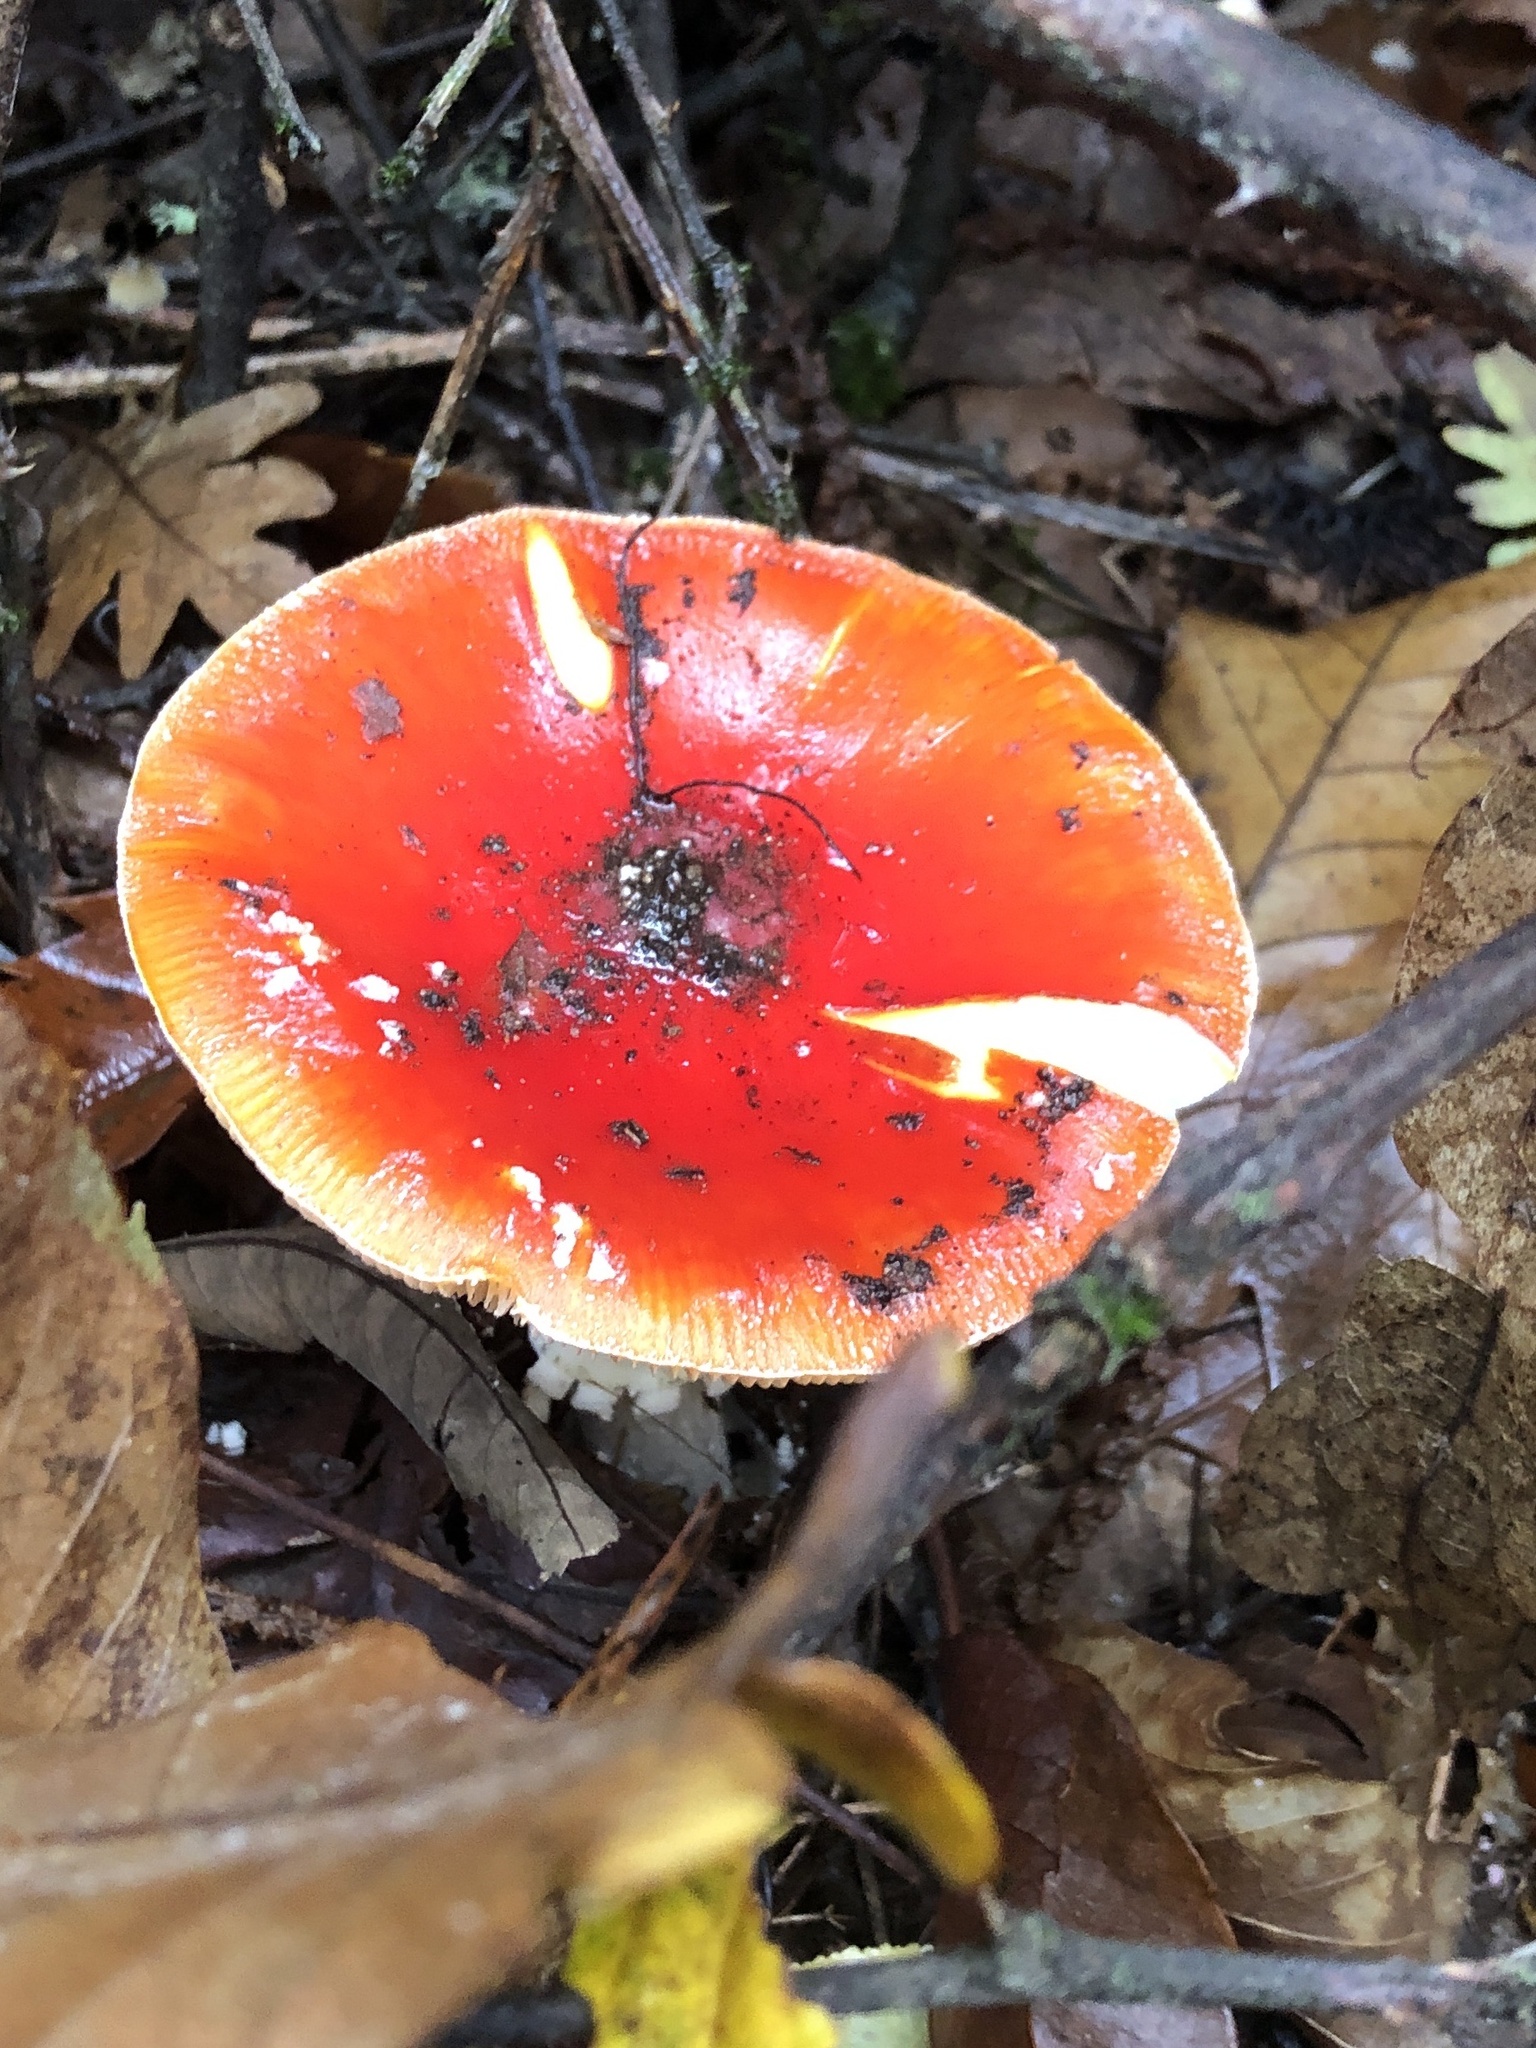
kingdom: Fungi
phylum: Basidiomycota
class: Agaricomycetes
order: Agaricales
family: Amanitaceae
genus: Amanita
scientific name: Amanita muscaria
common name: Fly agaric
